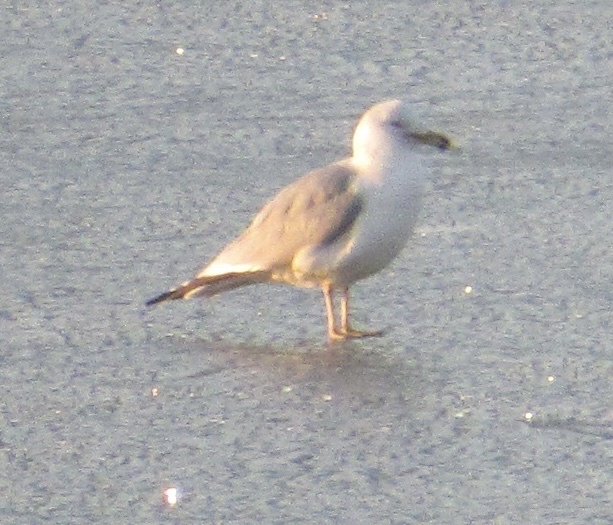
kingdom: Animalia
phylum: Chordata
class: Aves
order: Charadriiformes
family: Laridae
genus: Larus
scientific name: Larus delawarensis
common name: Ring-billed gull
